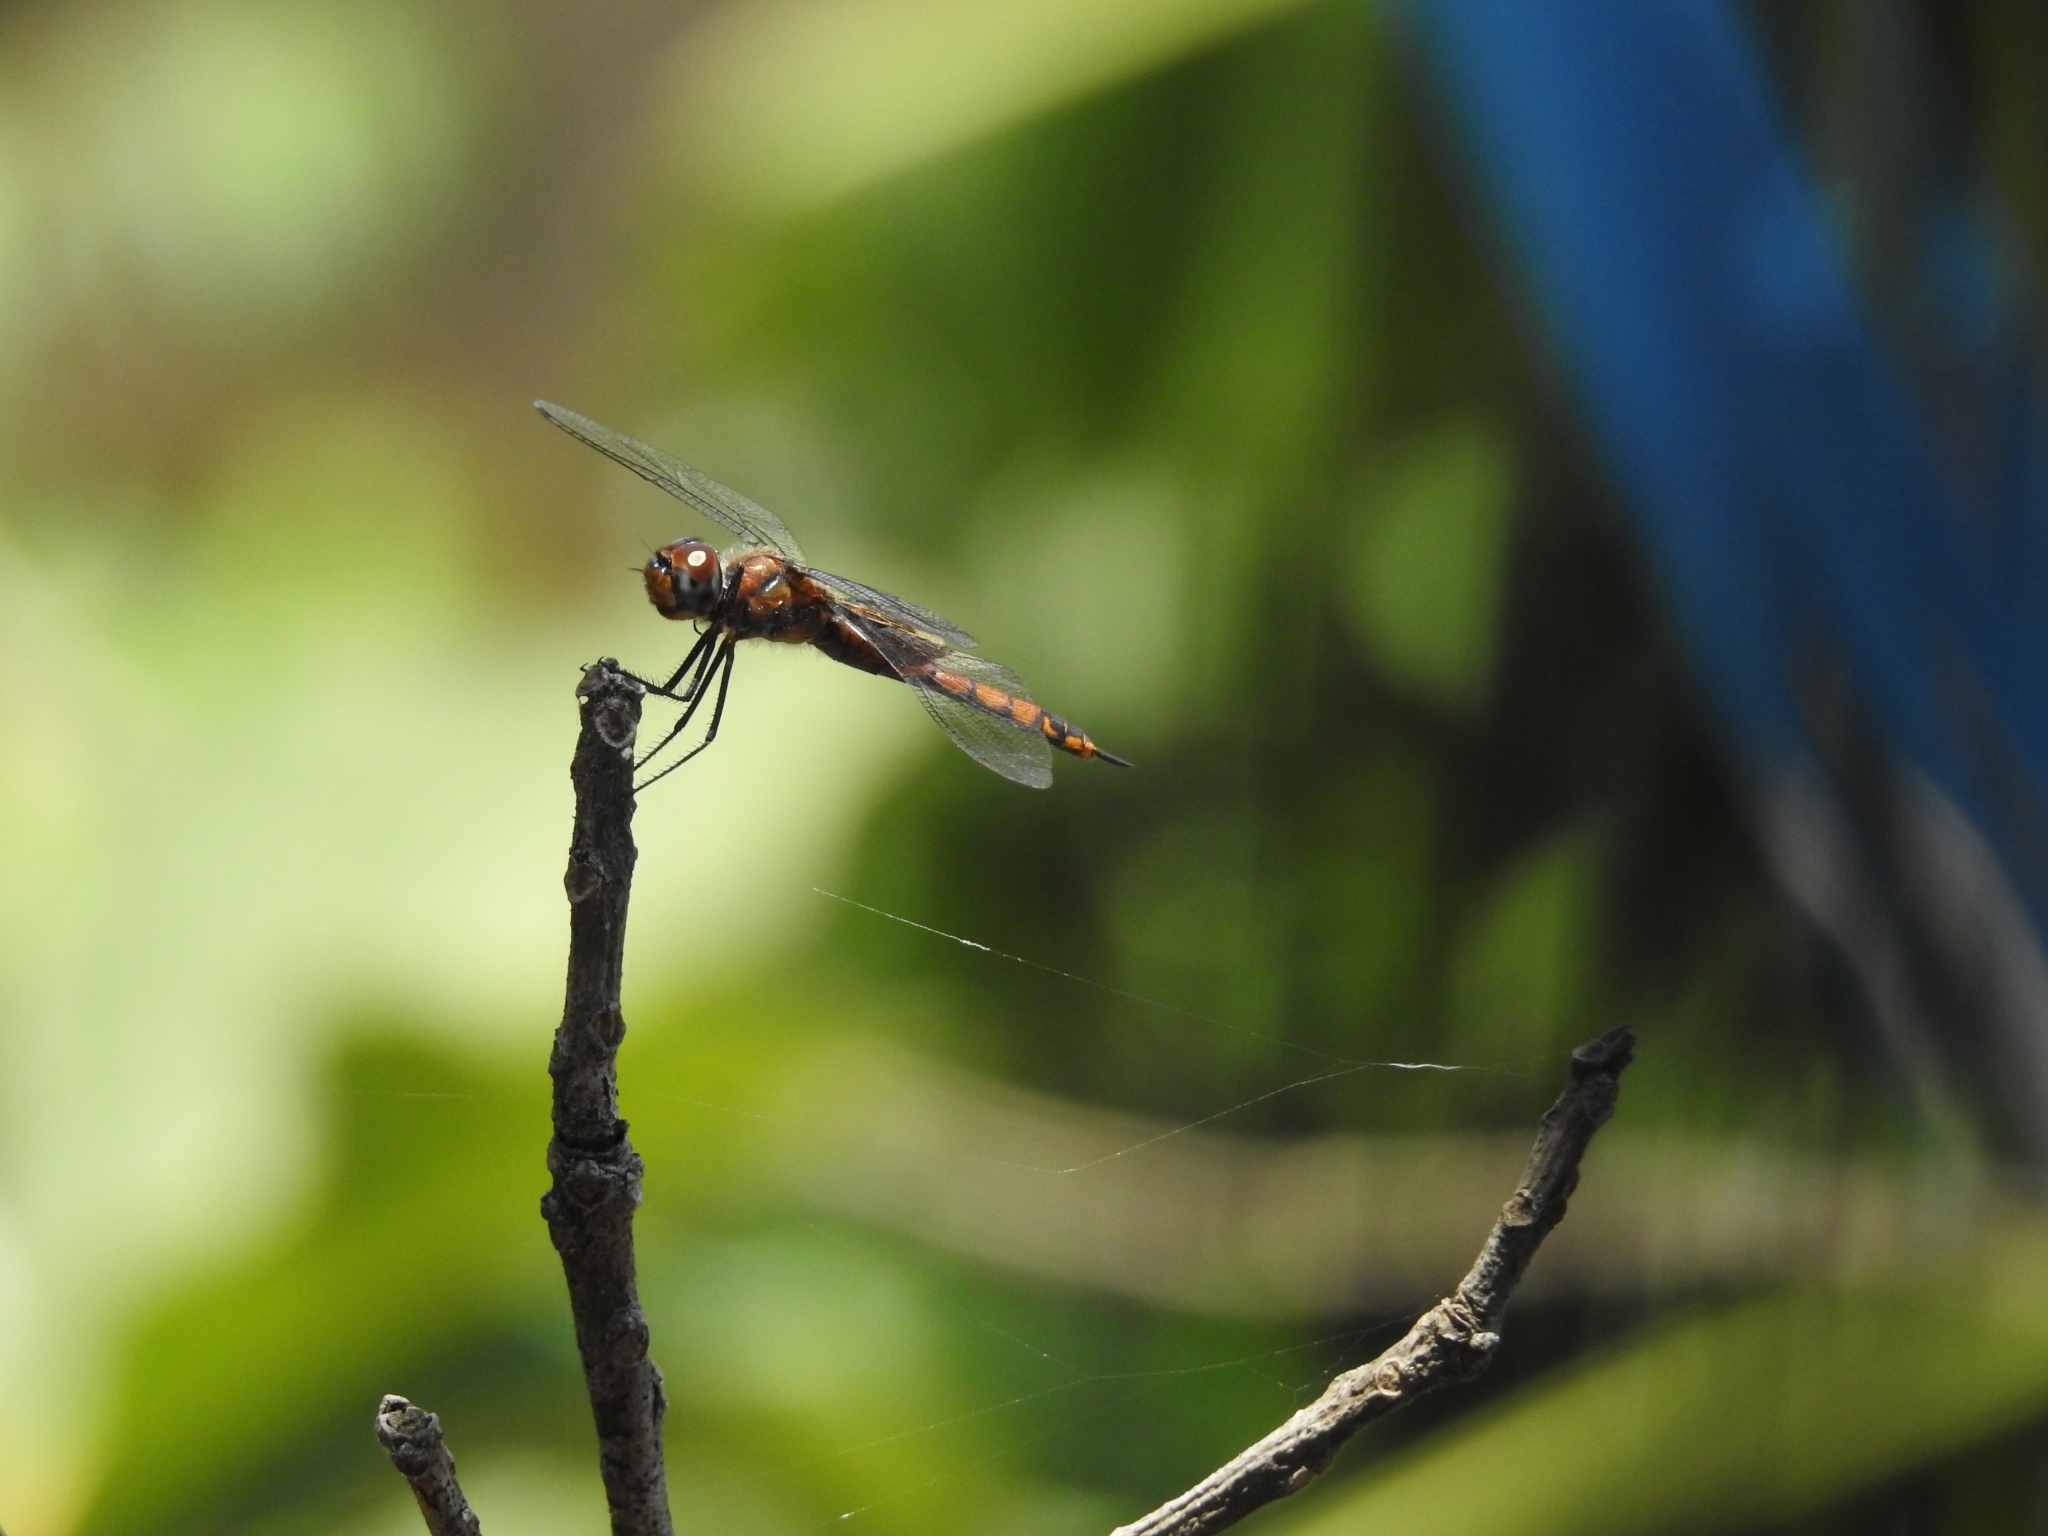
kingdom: Animalia
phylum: Arthropoda
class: Insecta
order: Odonata
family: Libellulidae
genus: Tramea
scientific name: Tramea limbata
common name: Ferruginous glider
